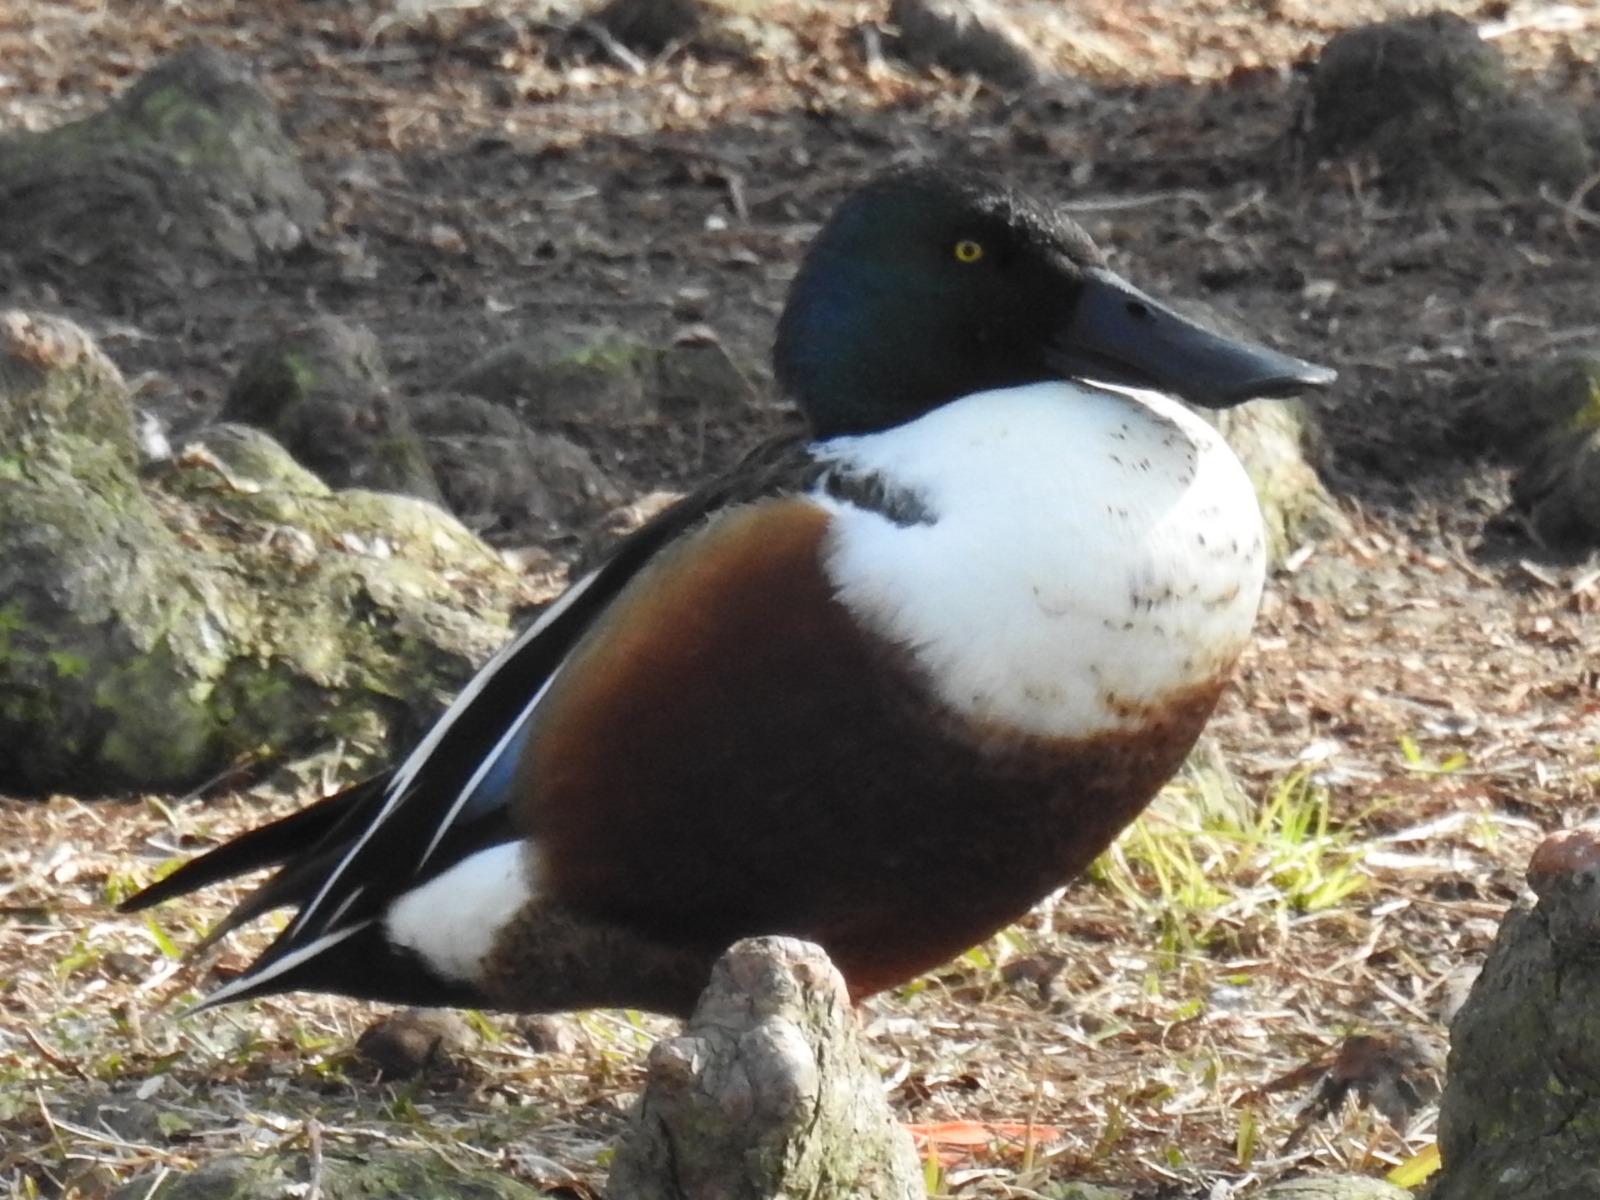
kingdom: Animalia
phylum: Chordata
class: Aves
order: Anseriformes
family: Anatidae
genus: Spatula
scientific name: Spatula clypeata
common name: Northern shoveler
